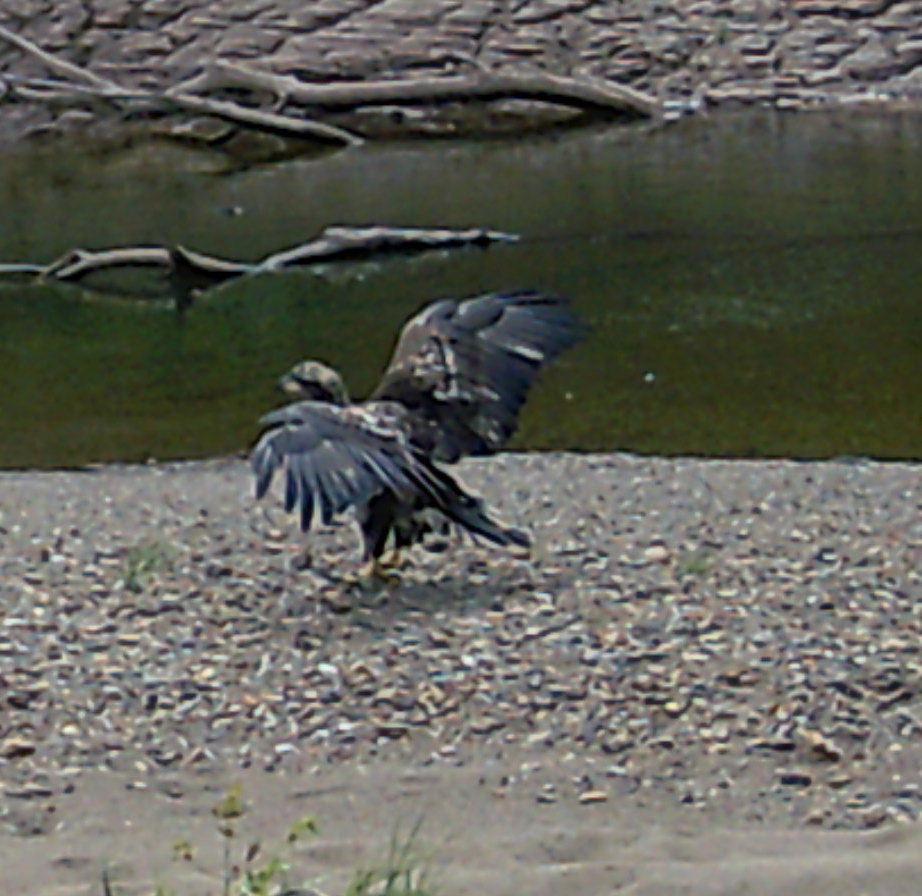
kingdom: Animalia
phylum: Chordata
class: Aves
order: Accipitriformes
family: Accipitridae
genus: Haliaeetus
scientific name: Haliaeetus leucocephalus
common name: Bald eagle
